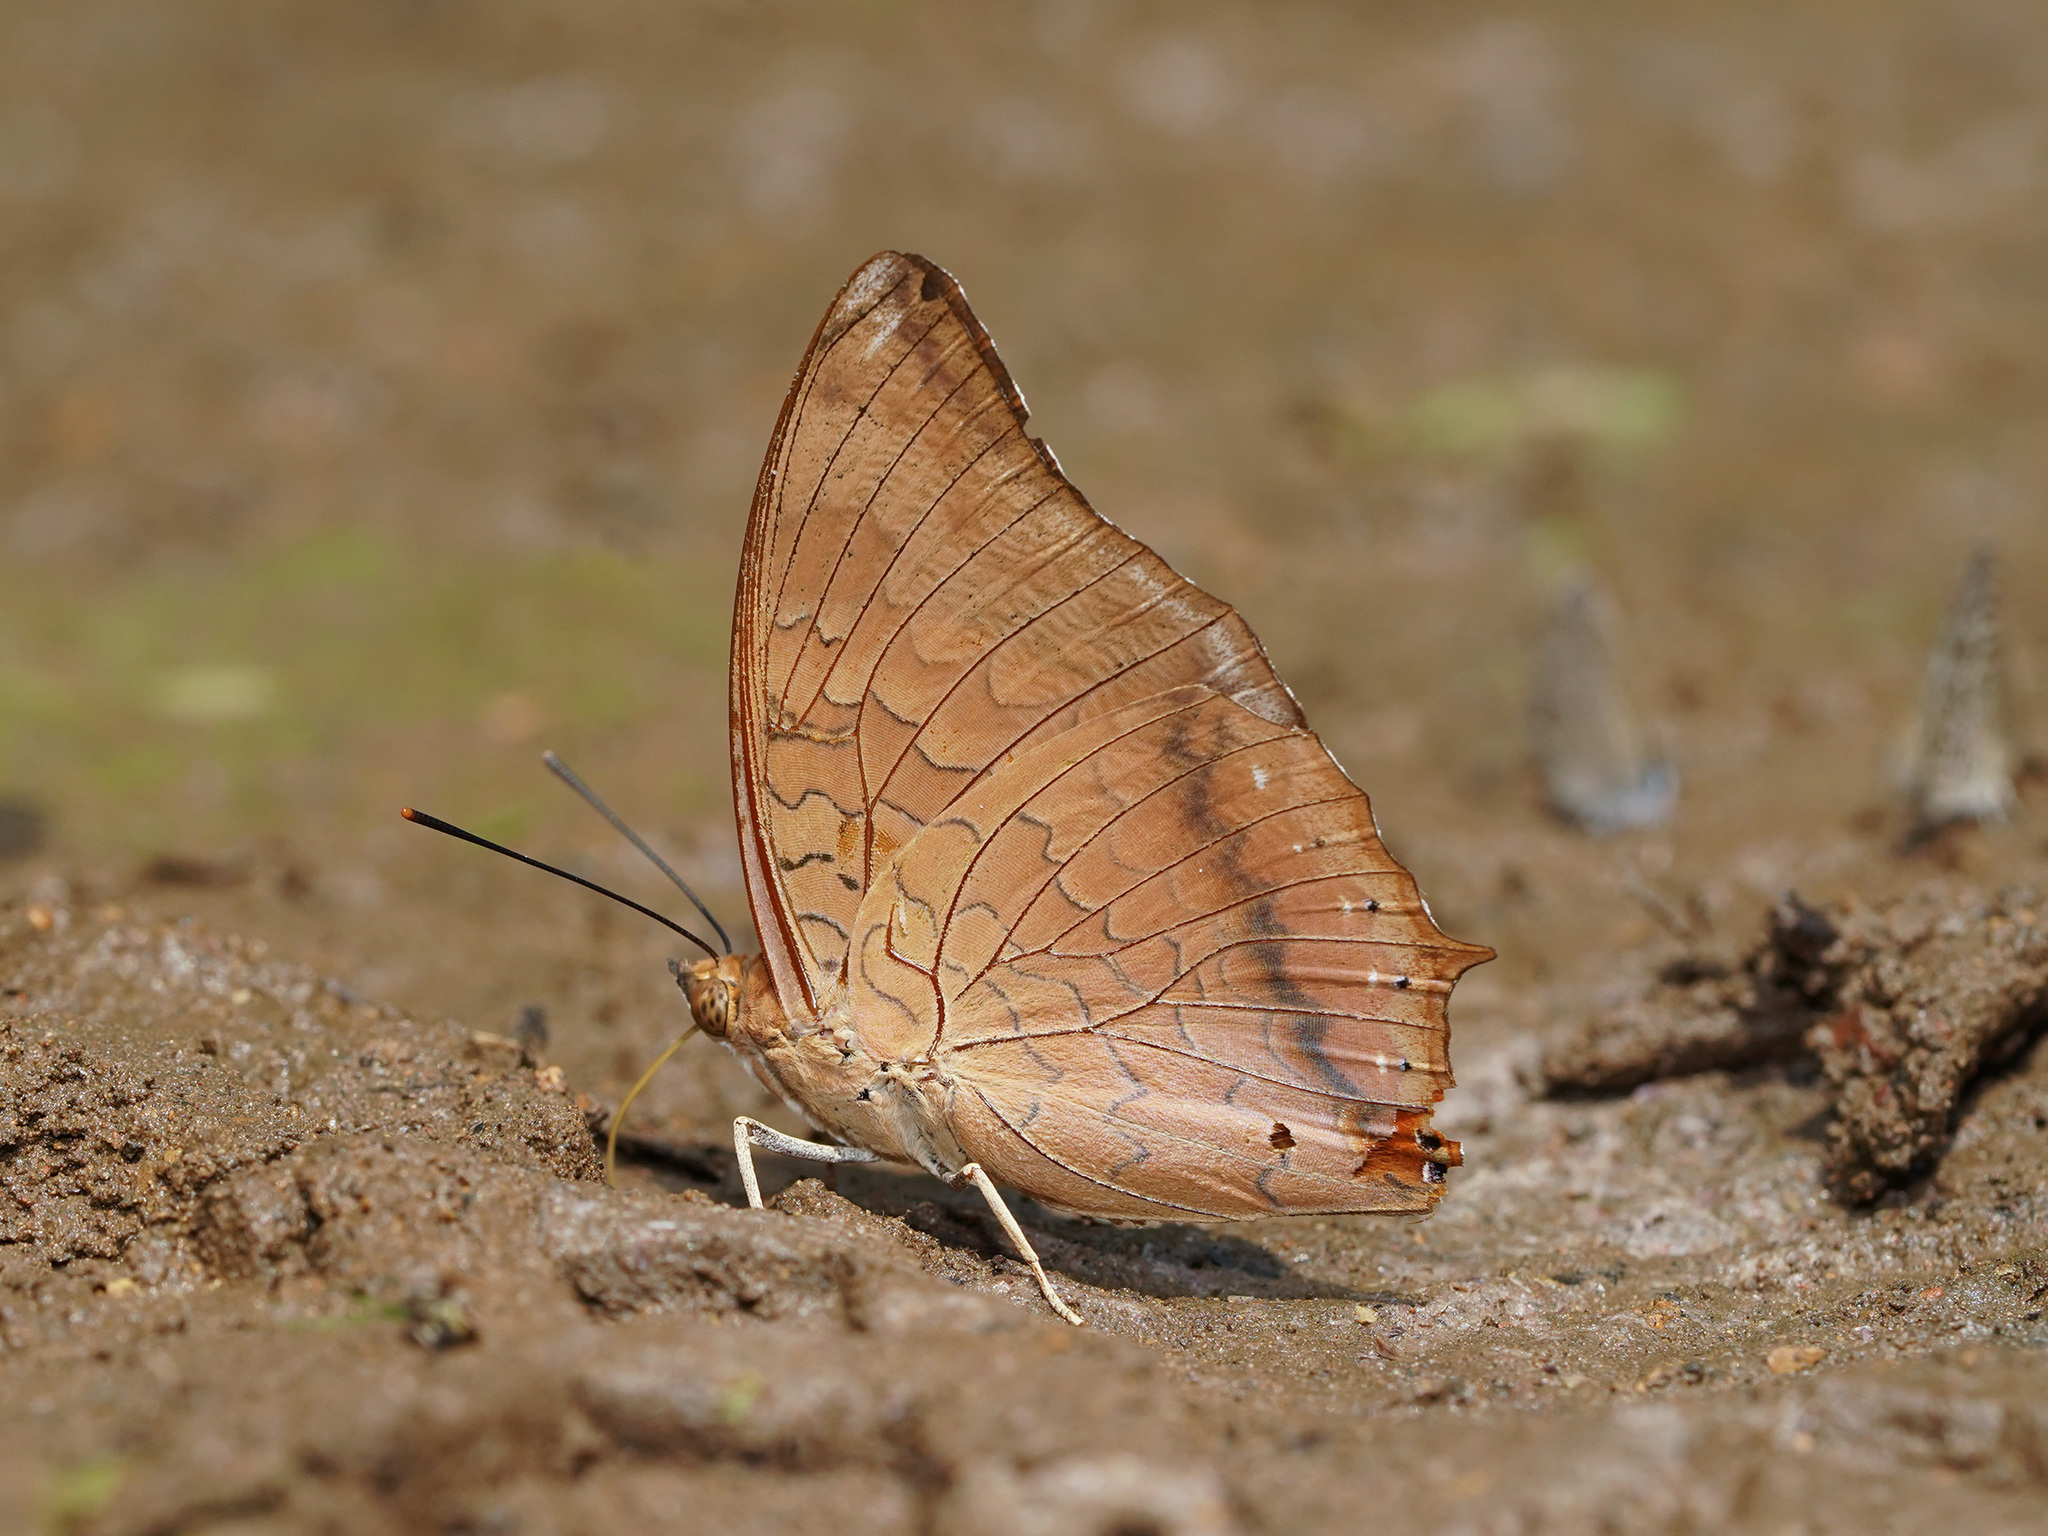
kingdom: Animalia
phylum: Arthropoda
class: Insecta
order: Lepidoptera
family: Nymphalidae
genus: Charaxes
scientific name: Charaxes bernardus
